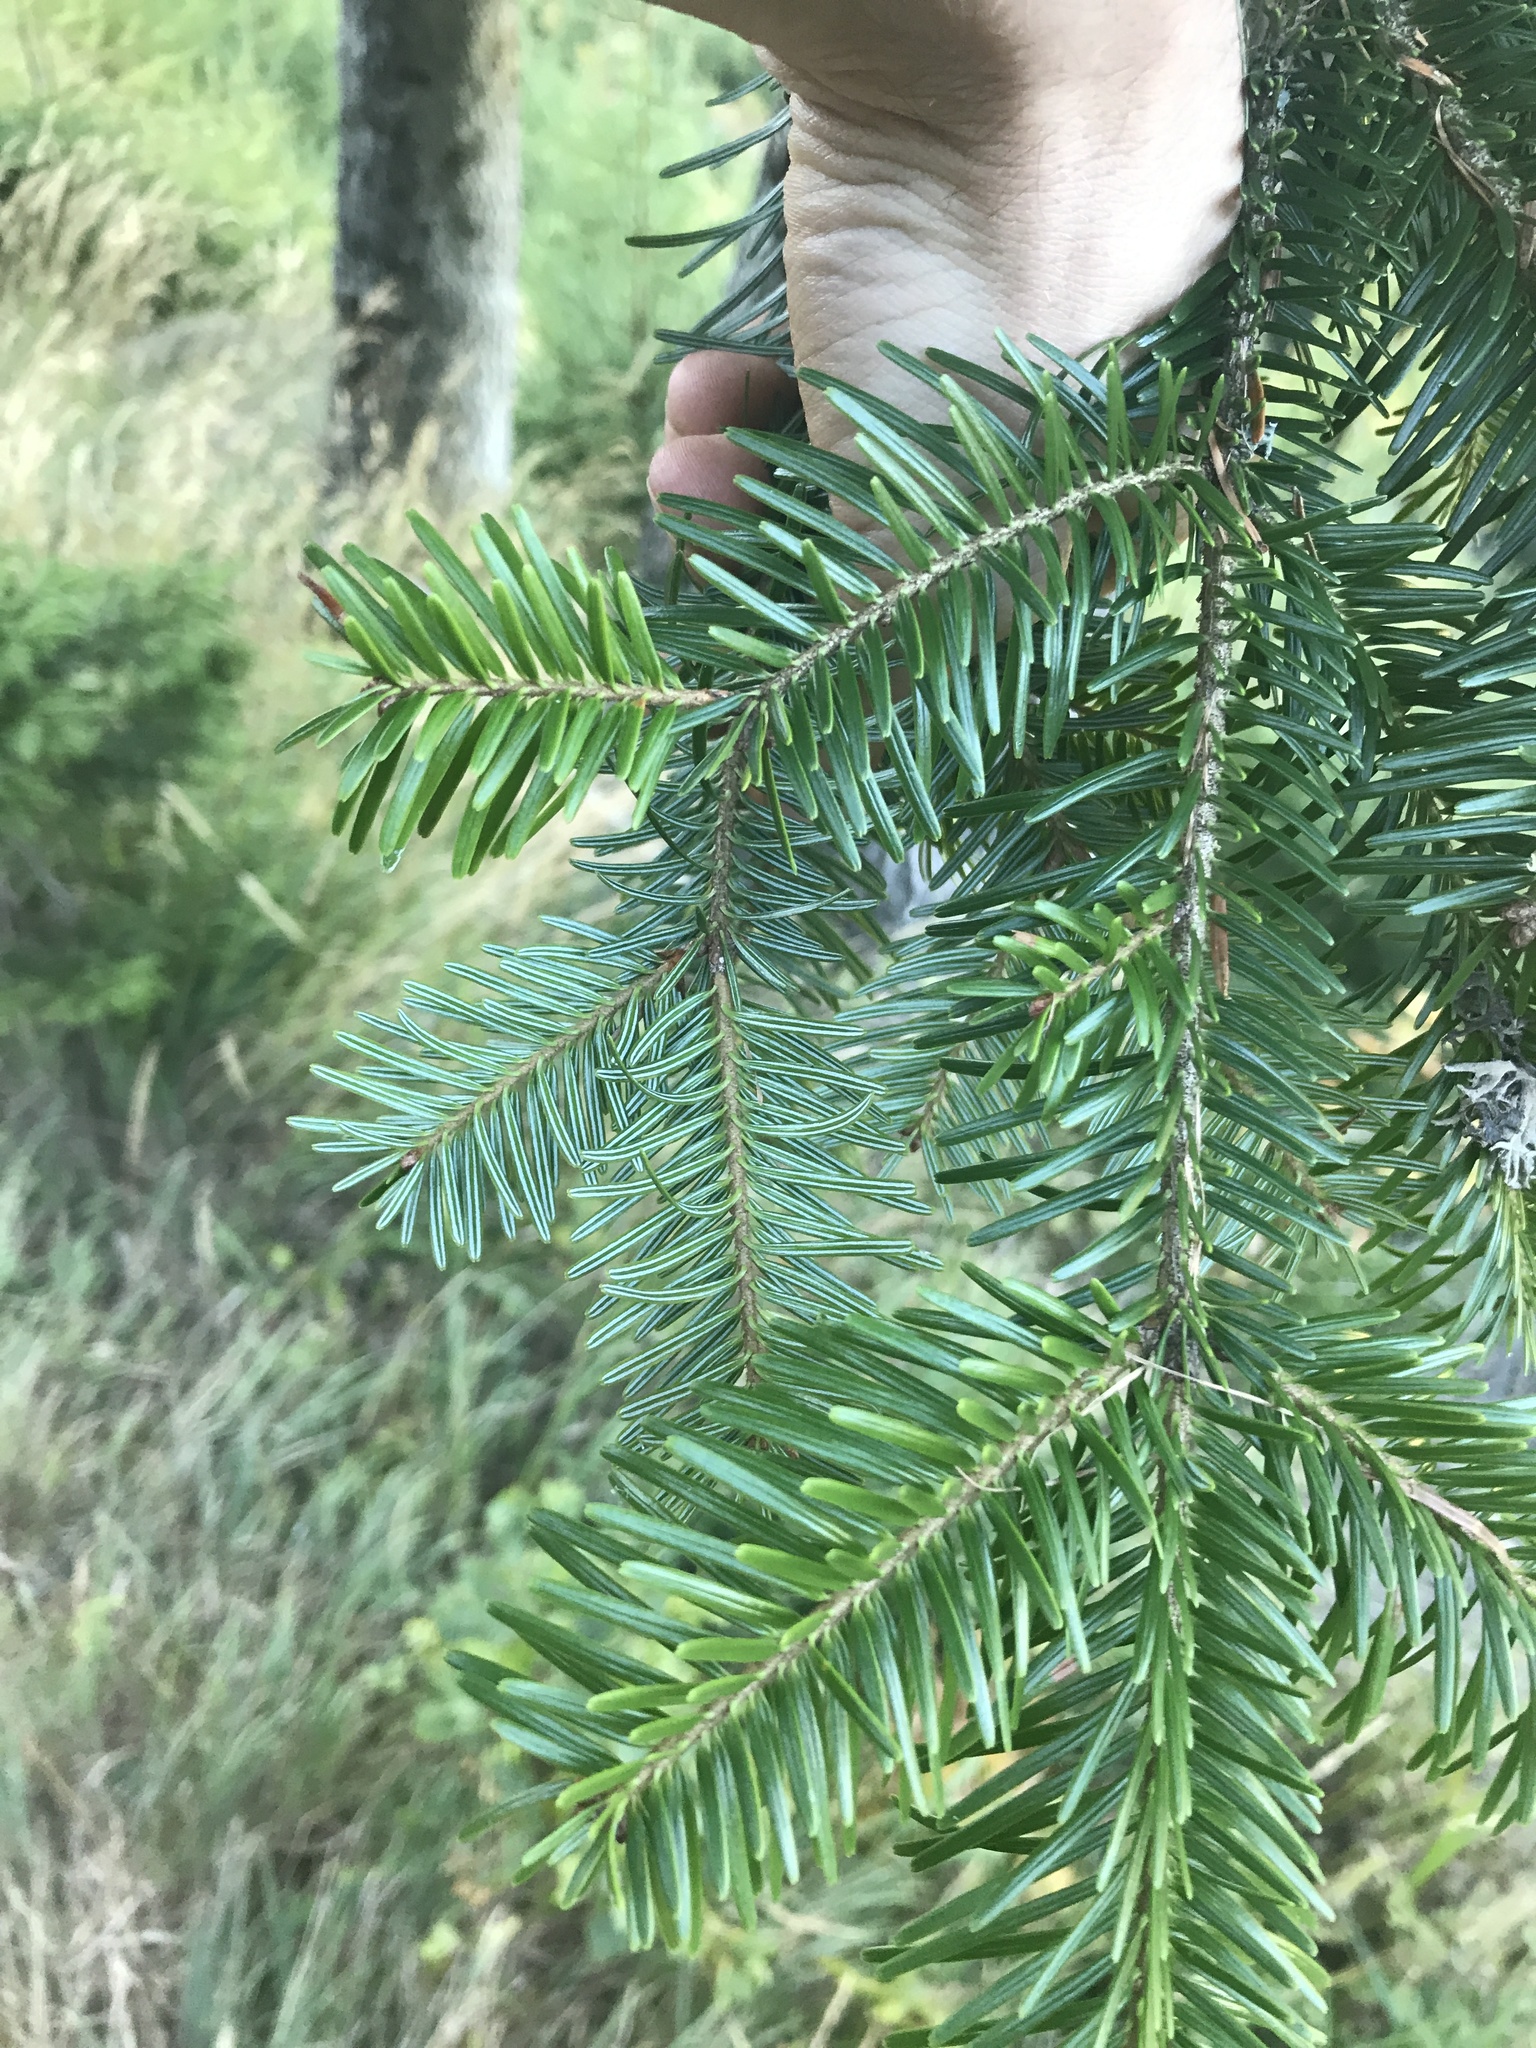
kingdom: Plantae
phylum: Tracheophyta
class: Pinopsida
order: Pinales
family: Pinaceae
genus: Abies
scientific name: Abies alba
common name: Silver fir
